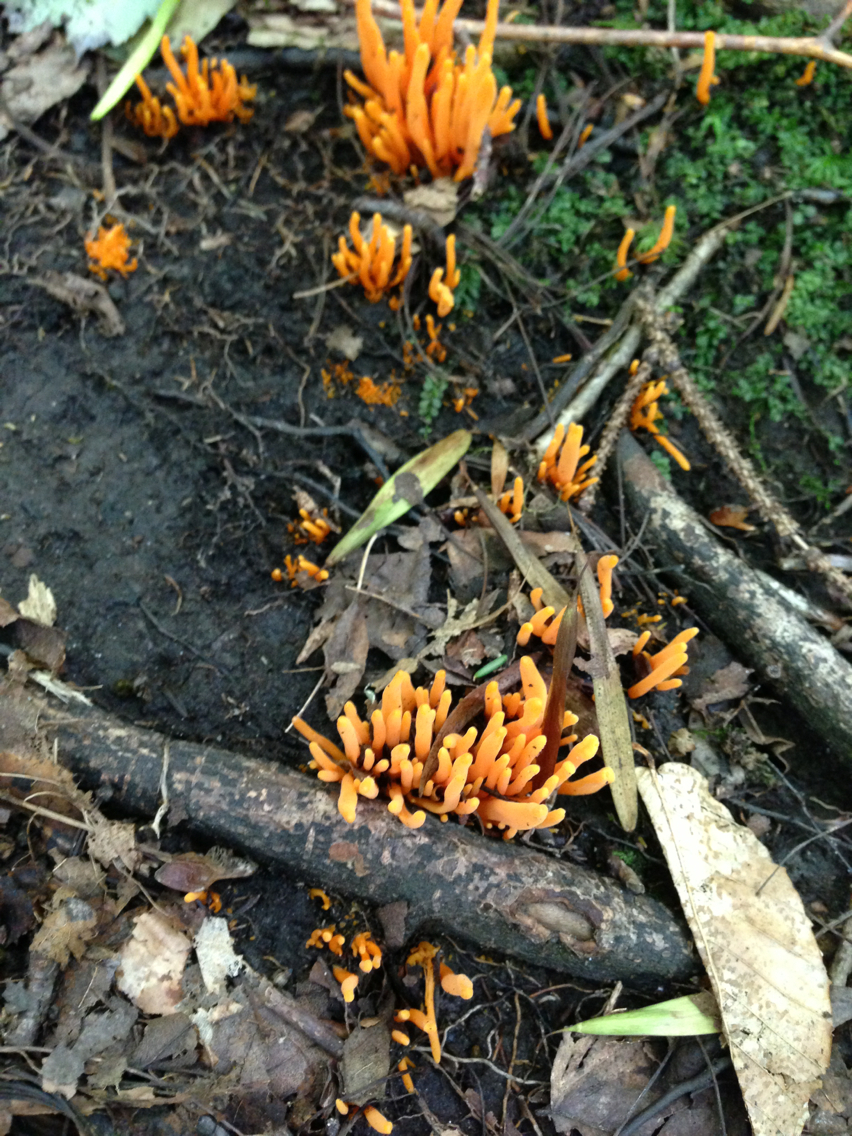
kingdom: Fungi
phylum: Basidiomycota
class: Agaricomycetes
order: Agaricales
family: Clavariaceae
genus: Clavulinopsis
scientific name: Clavulinopsis fusiformis
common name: Golden spindles
